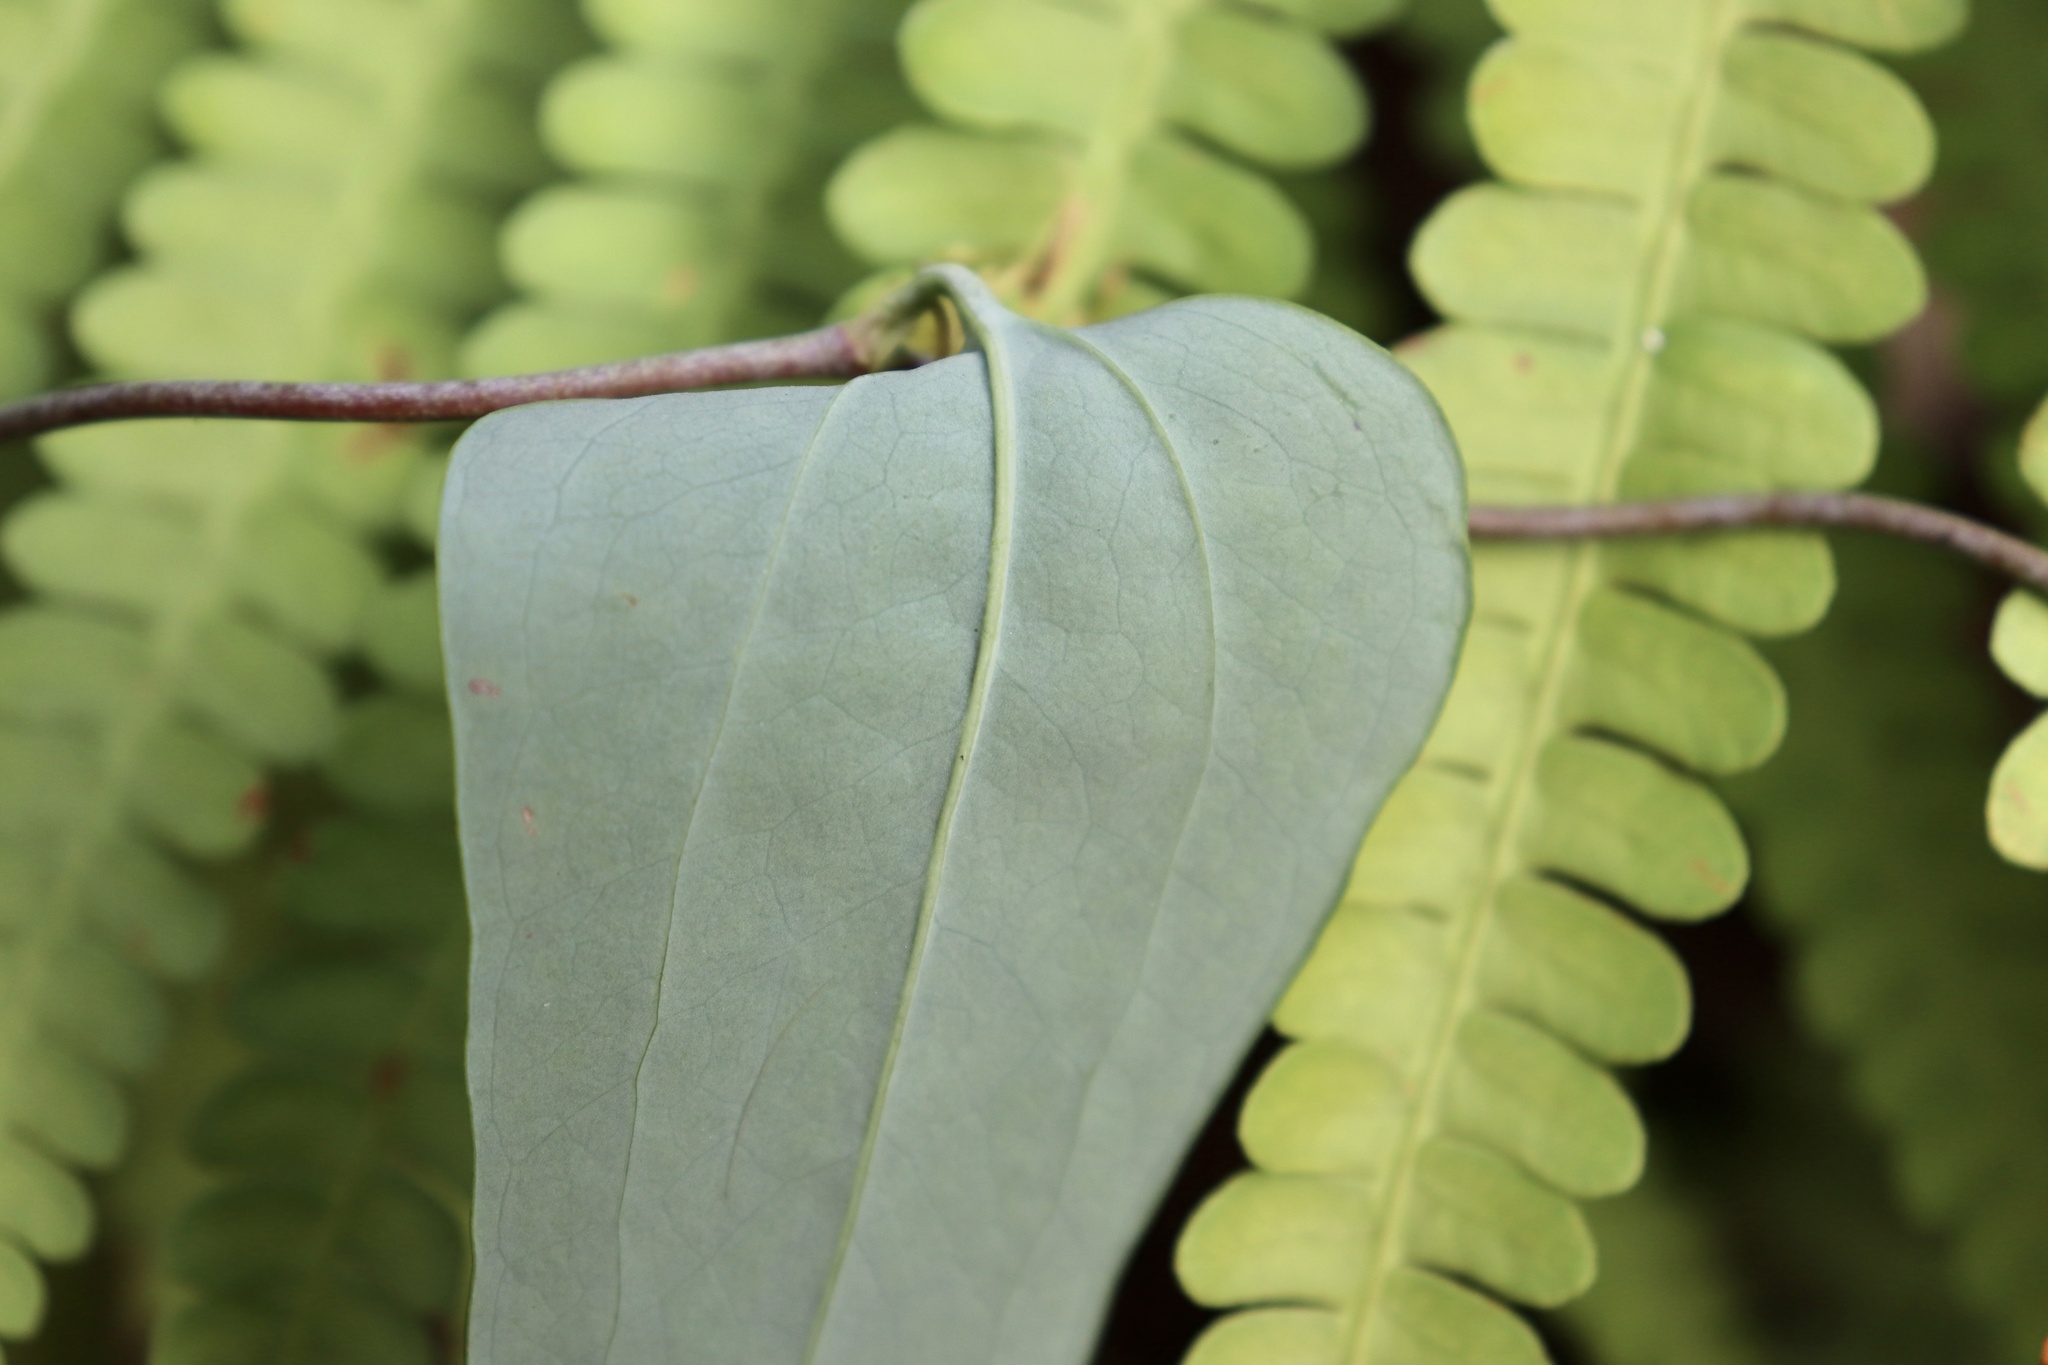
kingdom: Plantae
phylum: Tracheophyta
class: Liliopsida
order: Liliales
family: Smilacaceae
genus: Smilax
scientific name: Smilax glauca
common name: Cat greenbrier
